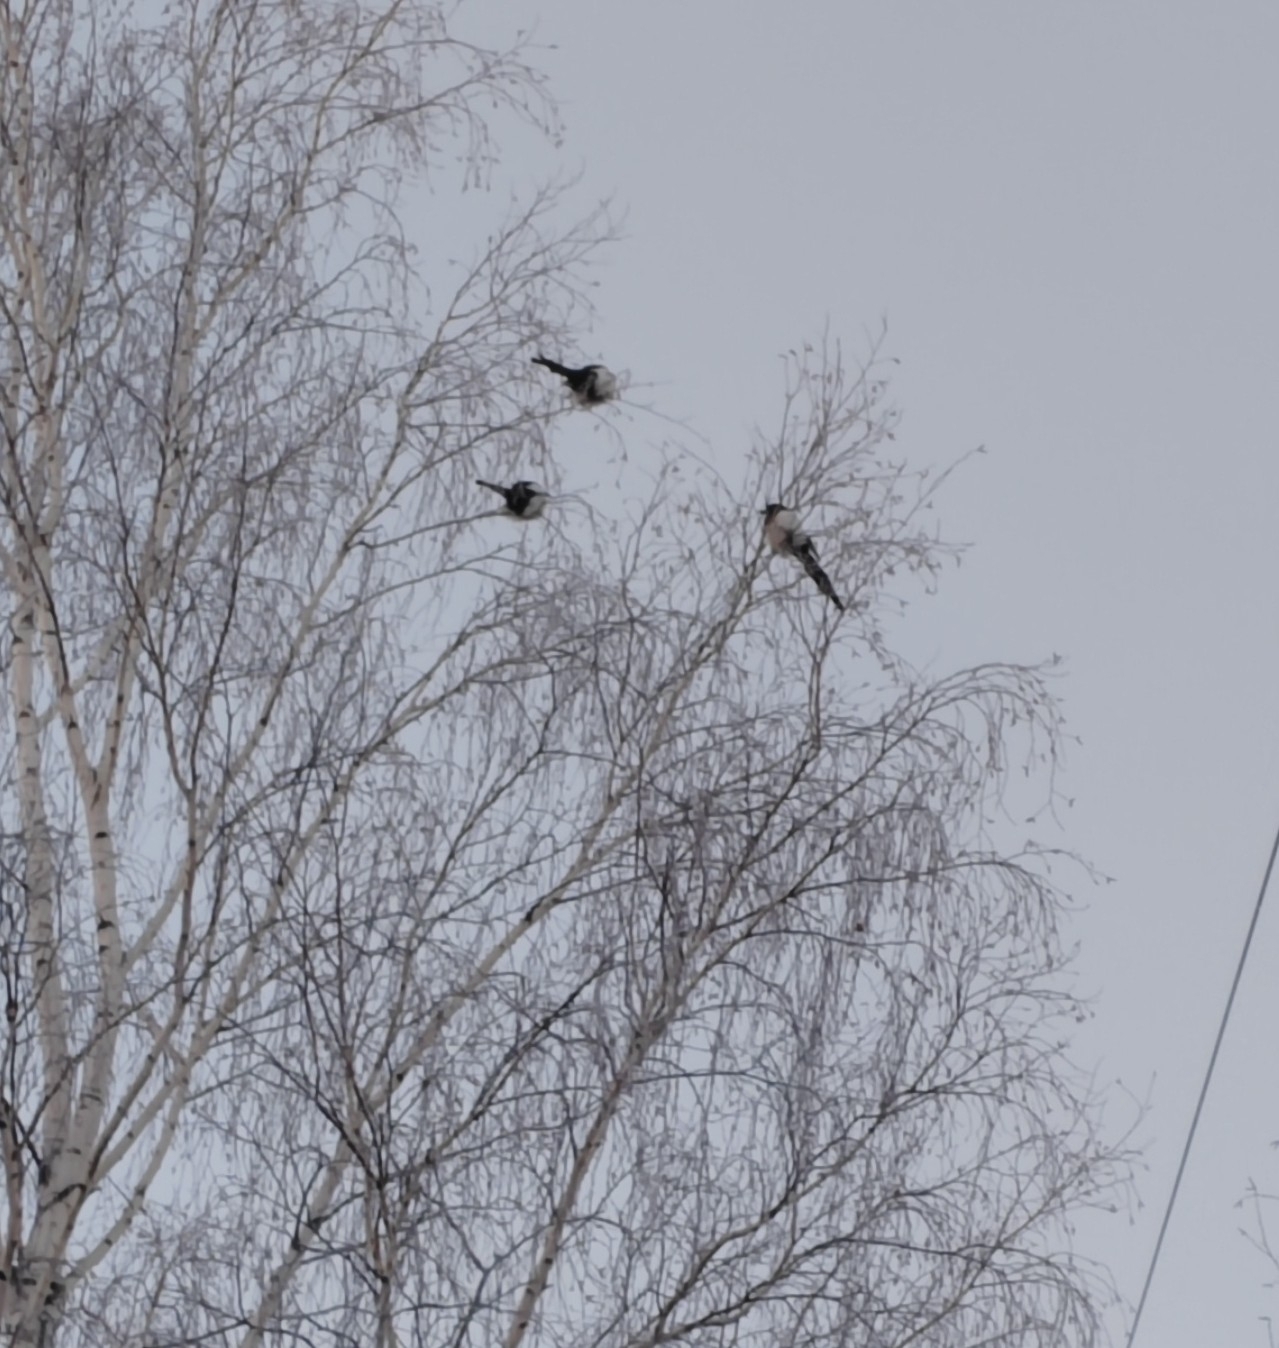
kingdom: Animalia
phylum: Chordata
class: Aves
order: Passeriformes
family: Corvidae
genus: Pica
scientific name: Pica pica
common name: Eurasian magpie
